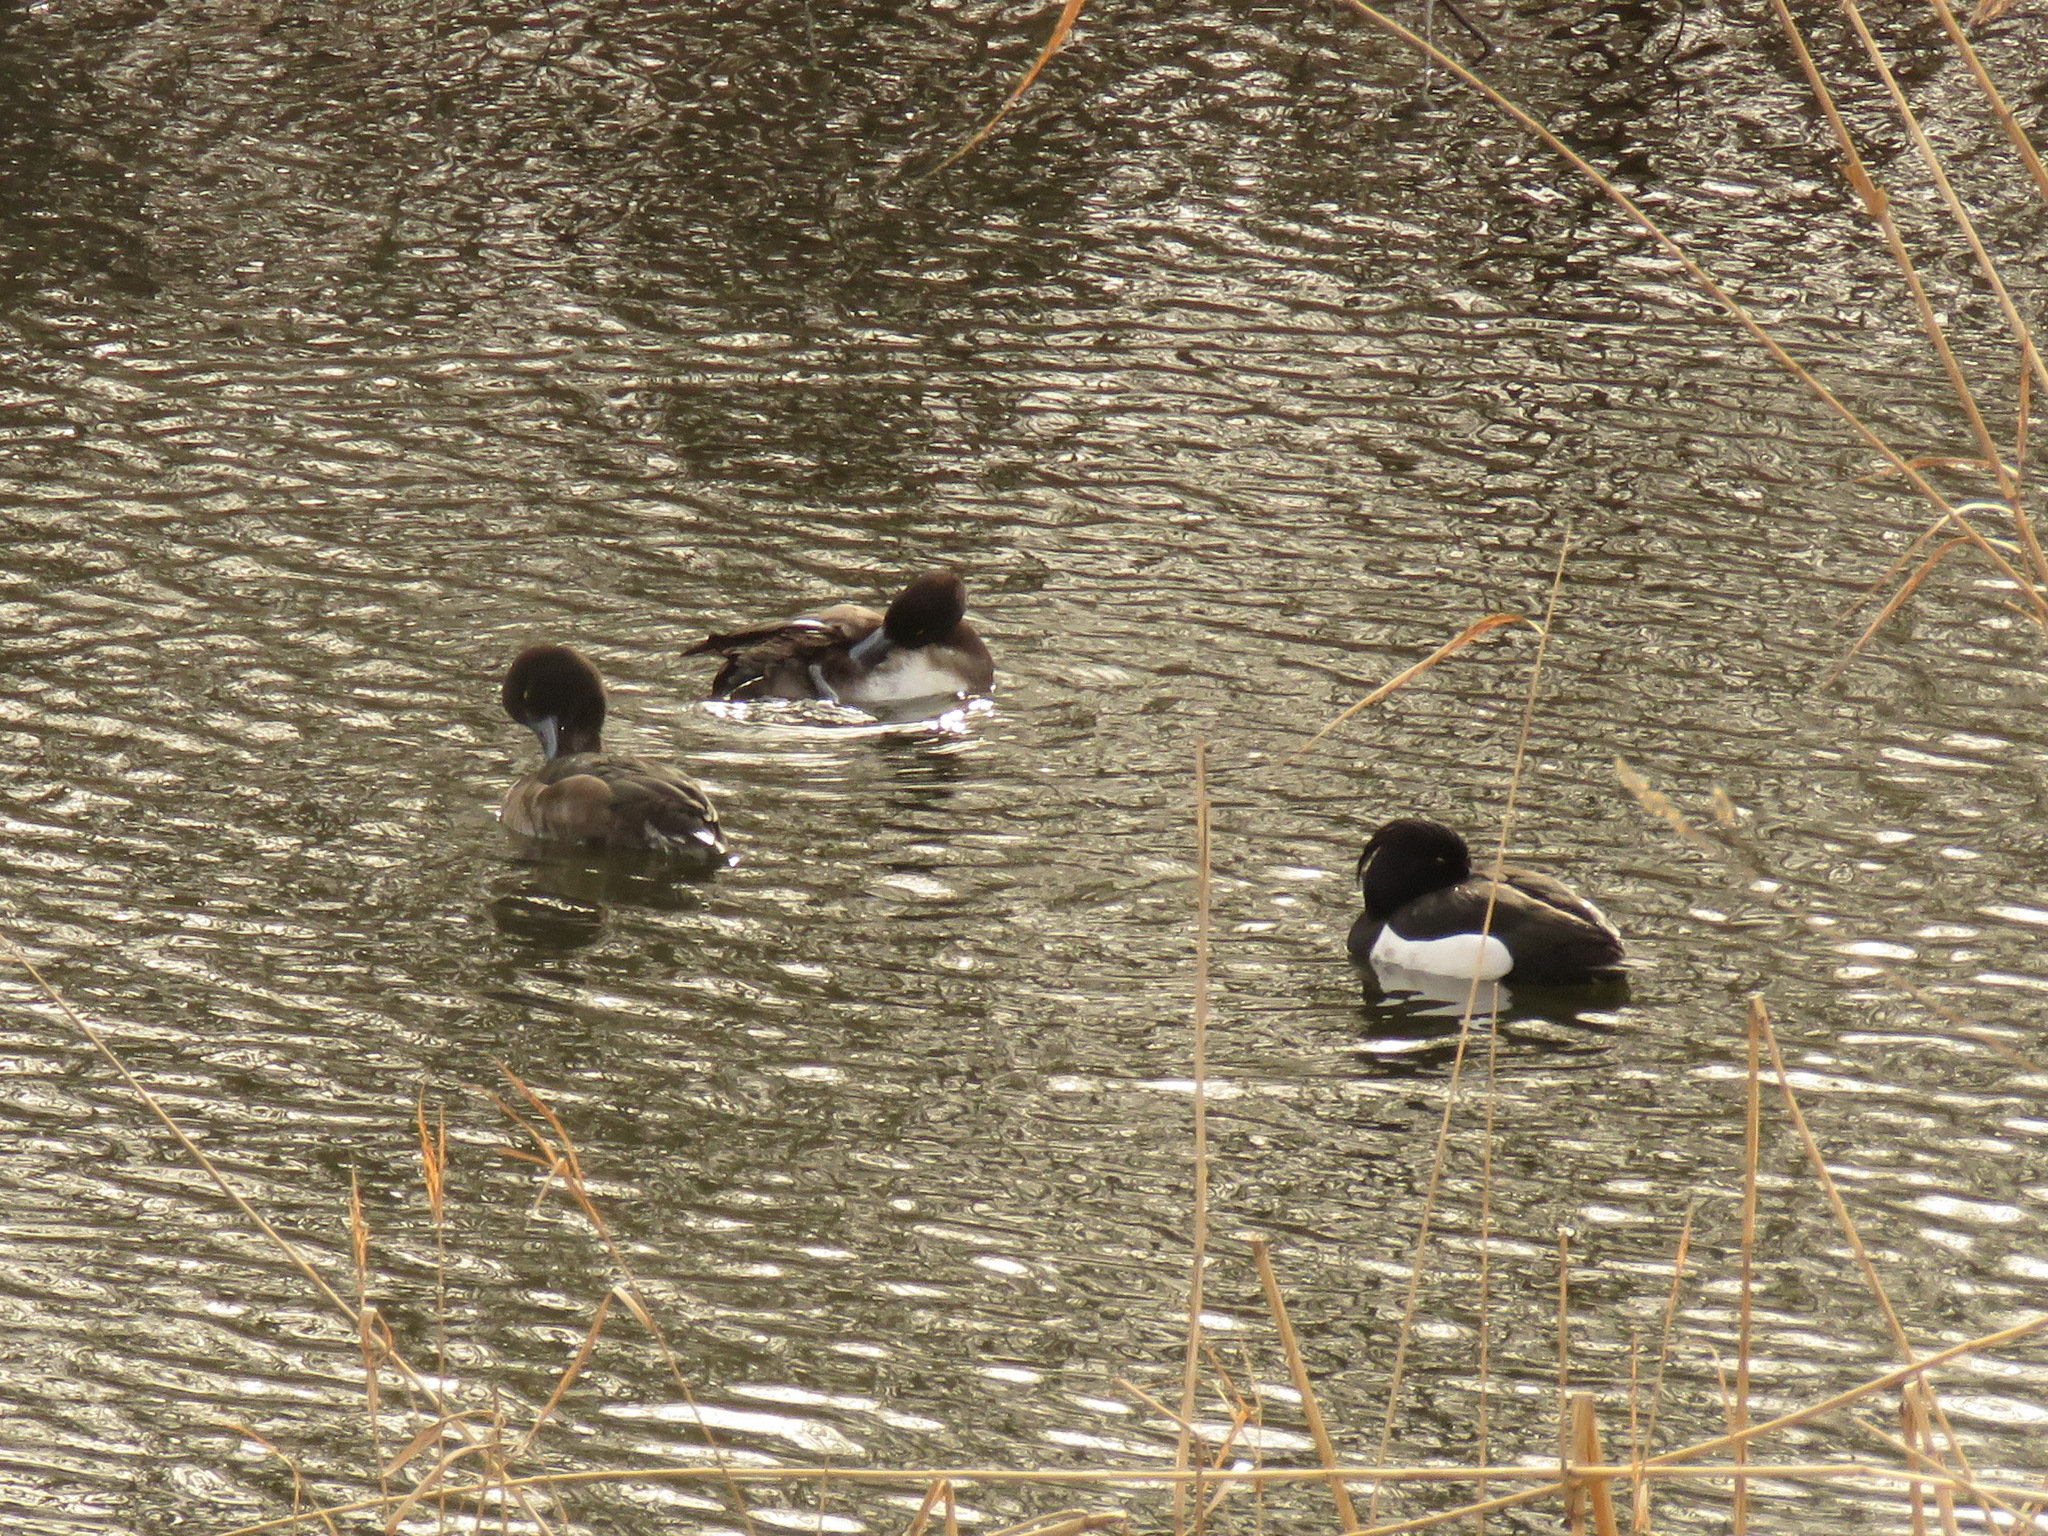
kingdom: Animalia
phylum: Chordata
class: Aves
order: Anseriformes
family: Anatidae
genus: Aythya
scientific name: Aythya fuligula
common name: Tufted duck
